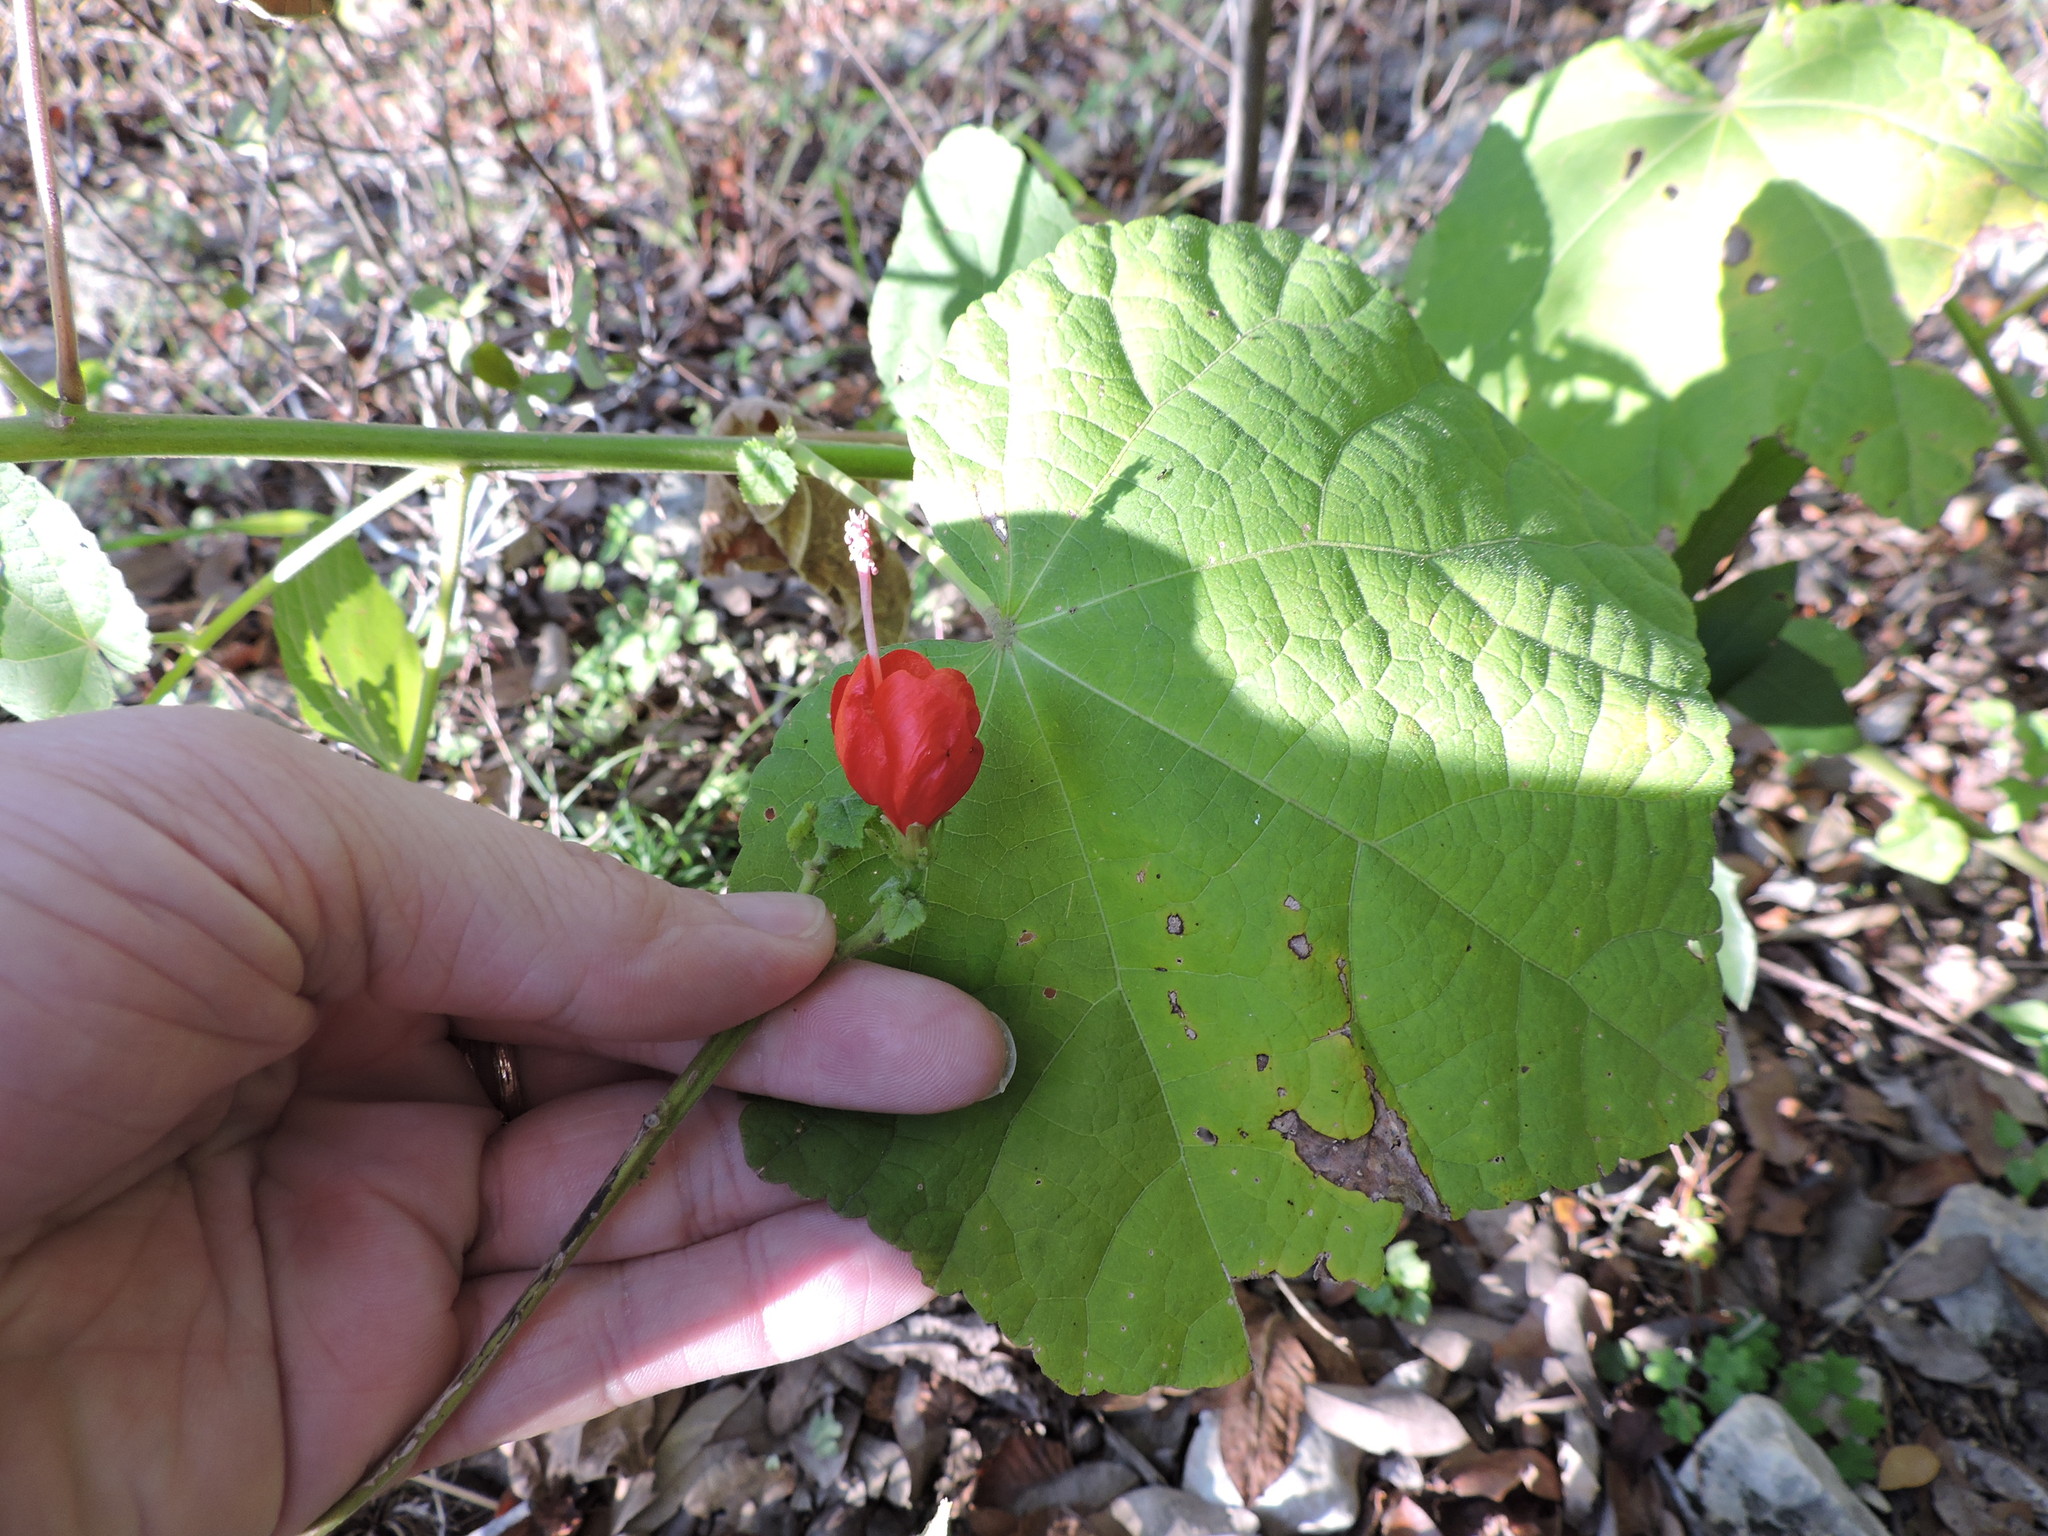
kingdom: Plantae
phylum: Tracheophyta
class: Magnoliopsida
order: Malvales
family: Malvaceae
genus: Malvaviscus
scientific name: Malvaviscus arboreus
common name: Wax mallow
